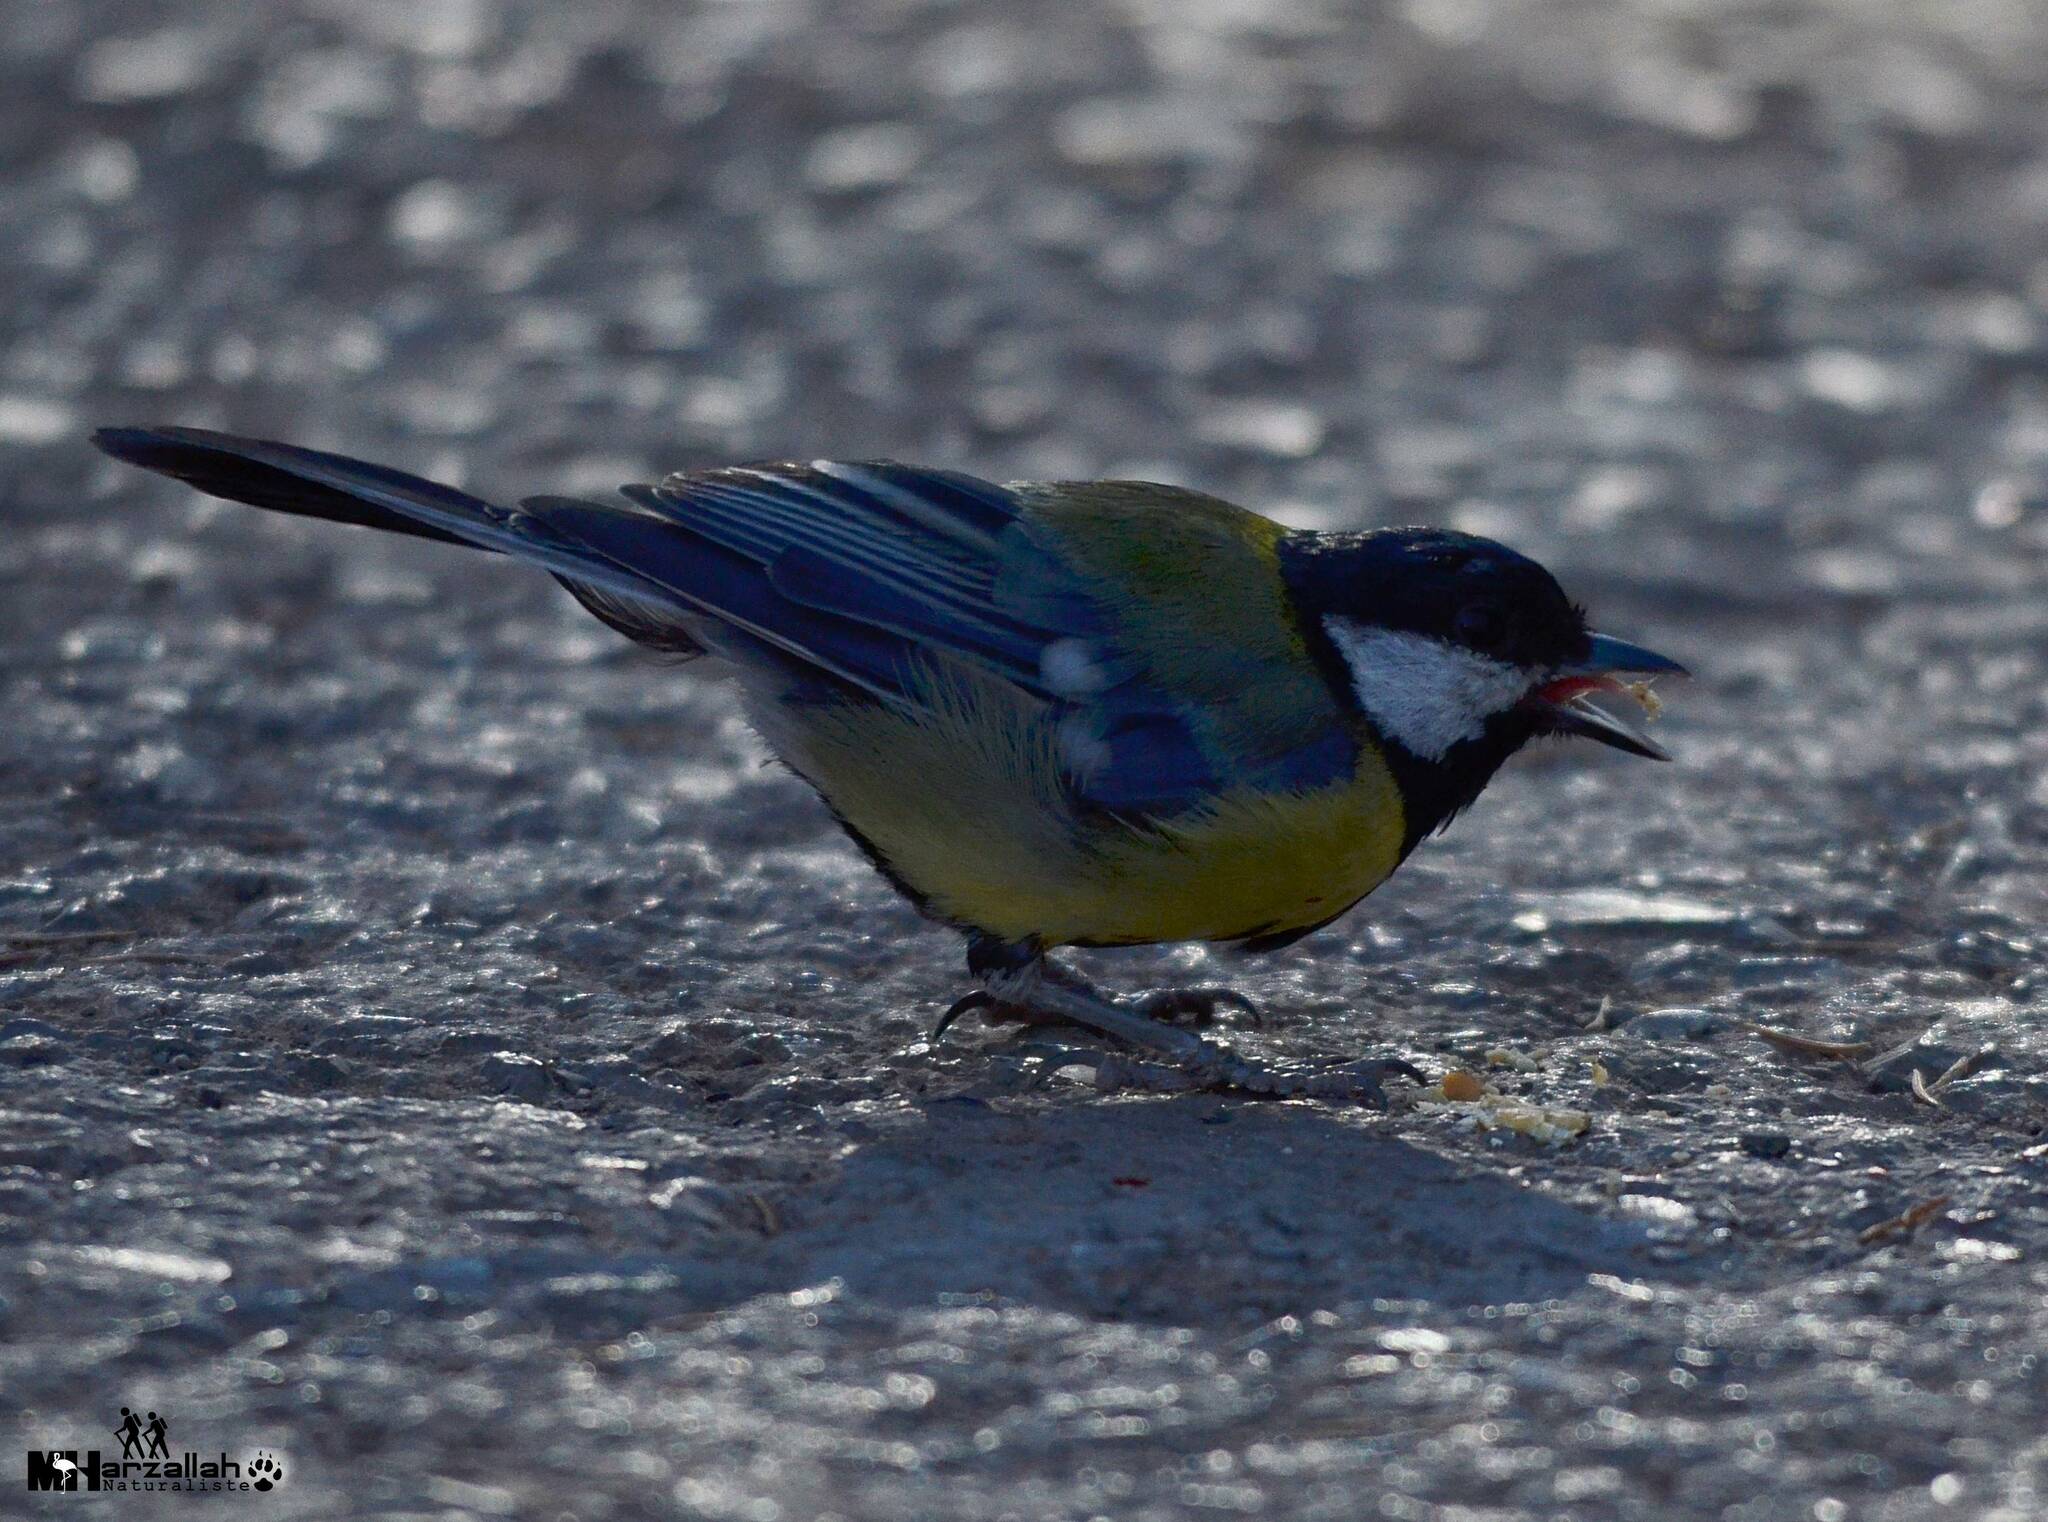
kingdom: Animalia
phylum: Chordata
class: Aves
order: Passeriformes
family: Paridae
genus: Parus
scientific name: Parus major
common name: Great tit
